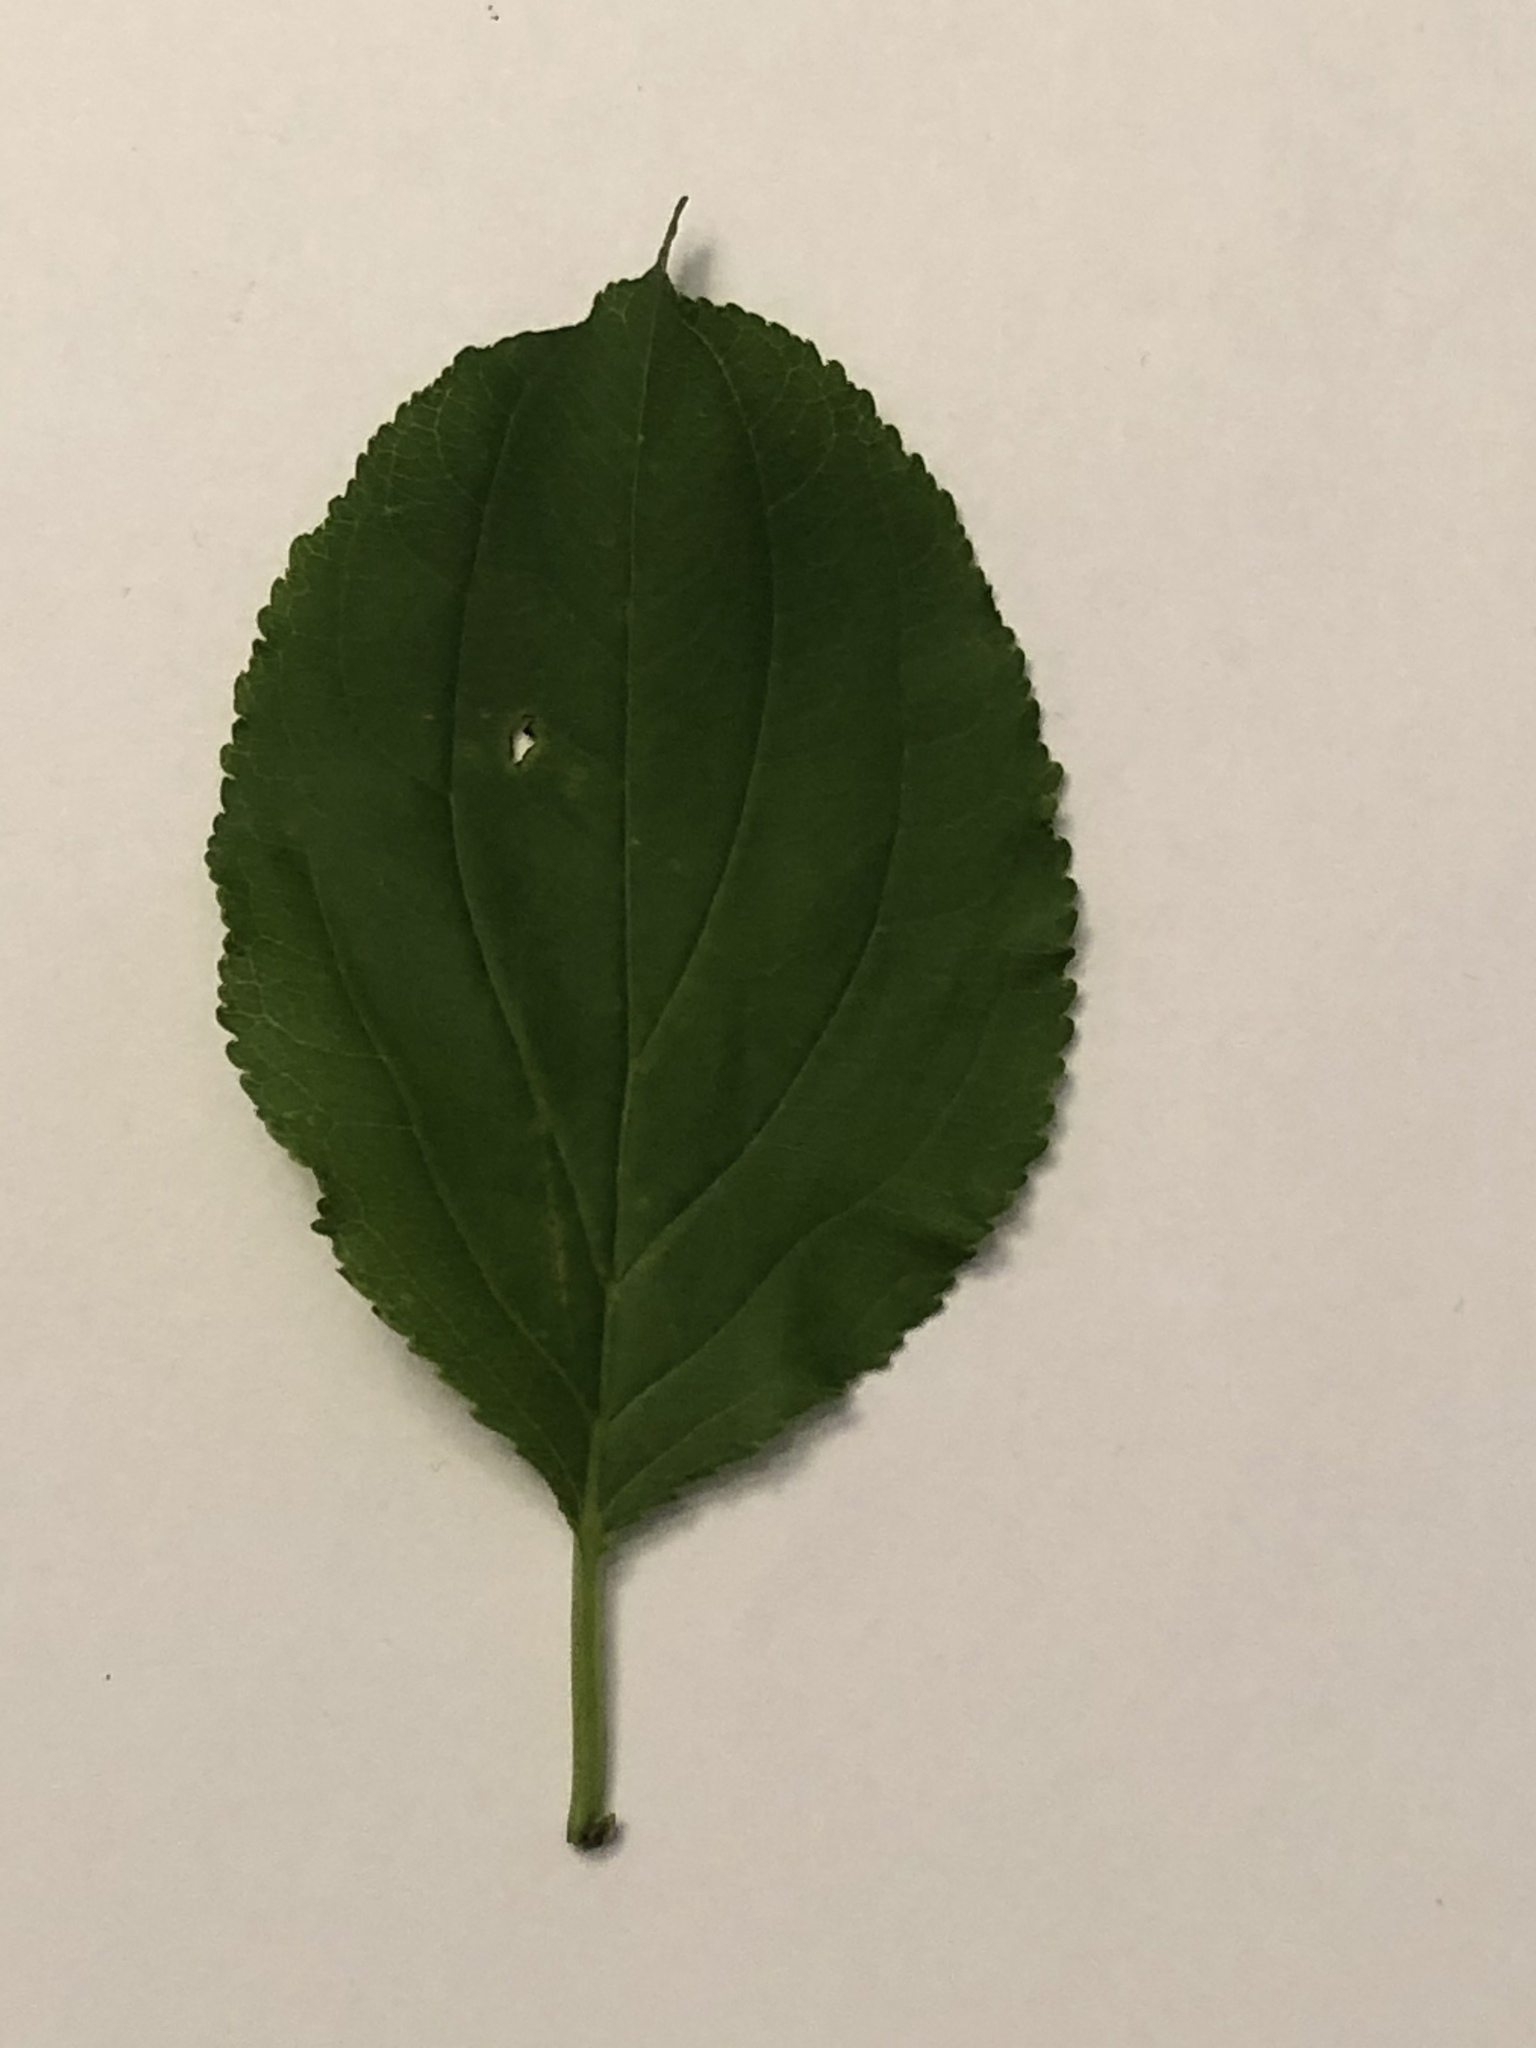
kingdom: Plantae
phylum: Tracheophyta
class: Magnoliopsida
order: Rosales
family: Rhamnaceae
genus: Rhamnus
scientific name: Rhamnus cathartica
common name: Common buckthorn
